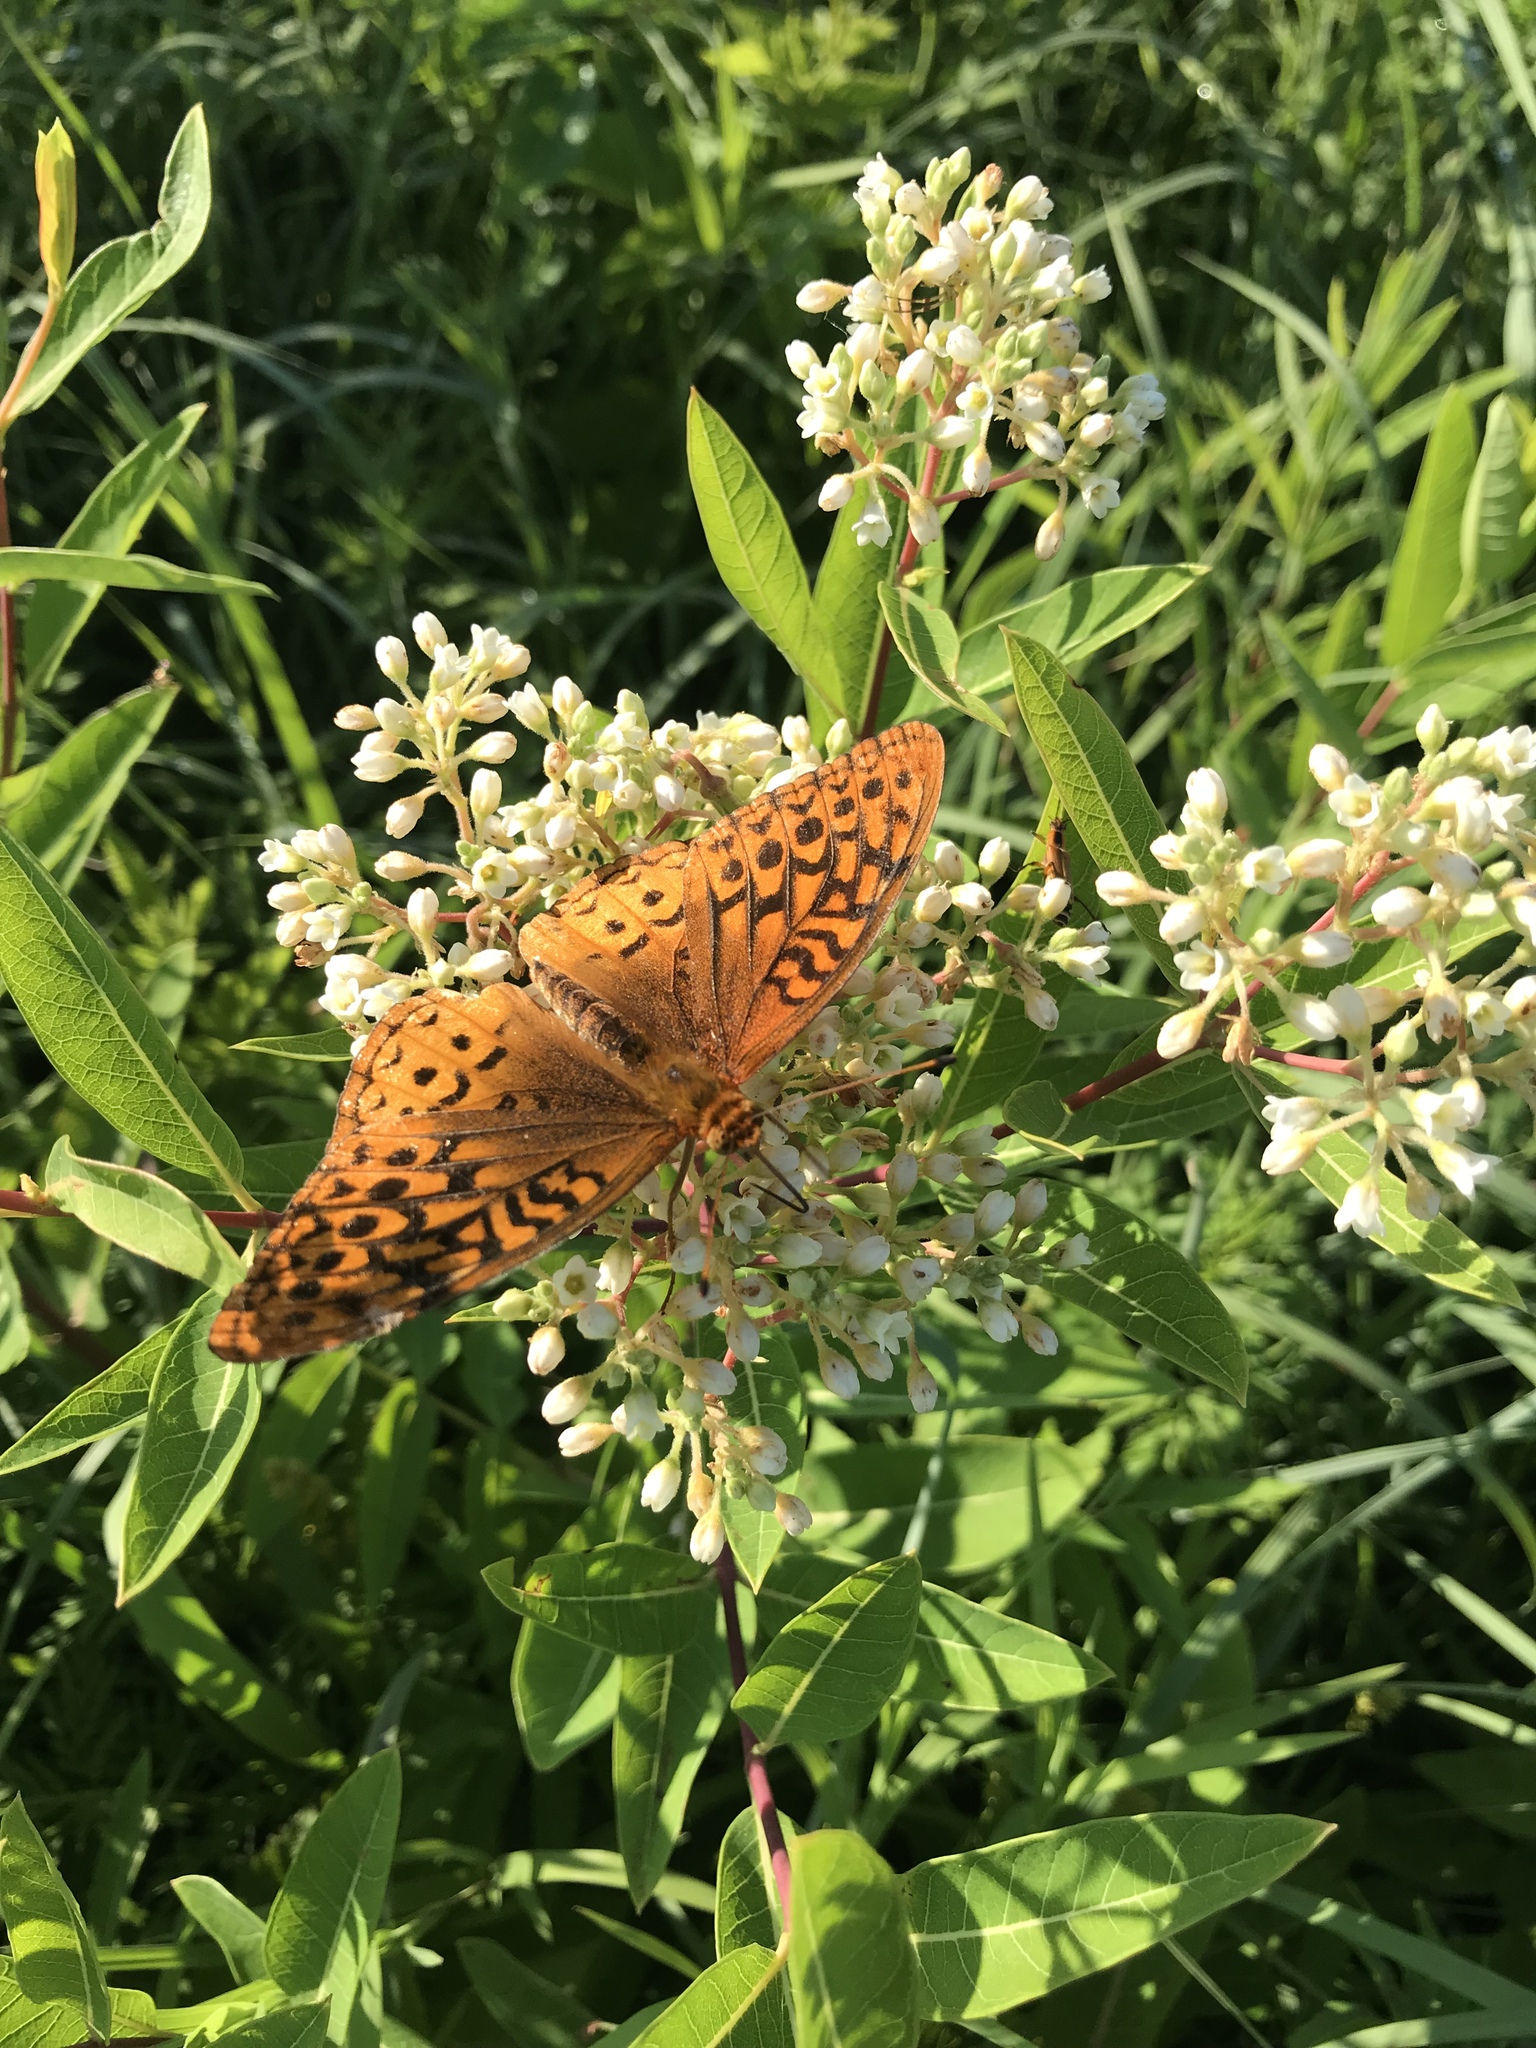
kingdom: Animalia
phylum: Arthropoda
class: Insecta
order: Lepidoptera
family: Nymphalidae
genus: Speyeria
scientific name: Speyeria cybele
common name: Great spangled fritillary
